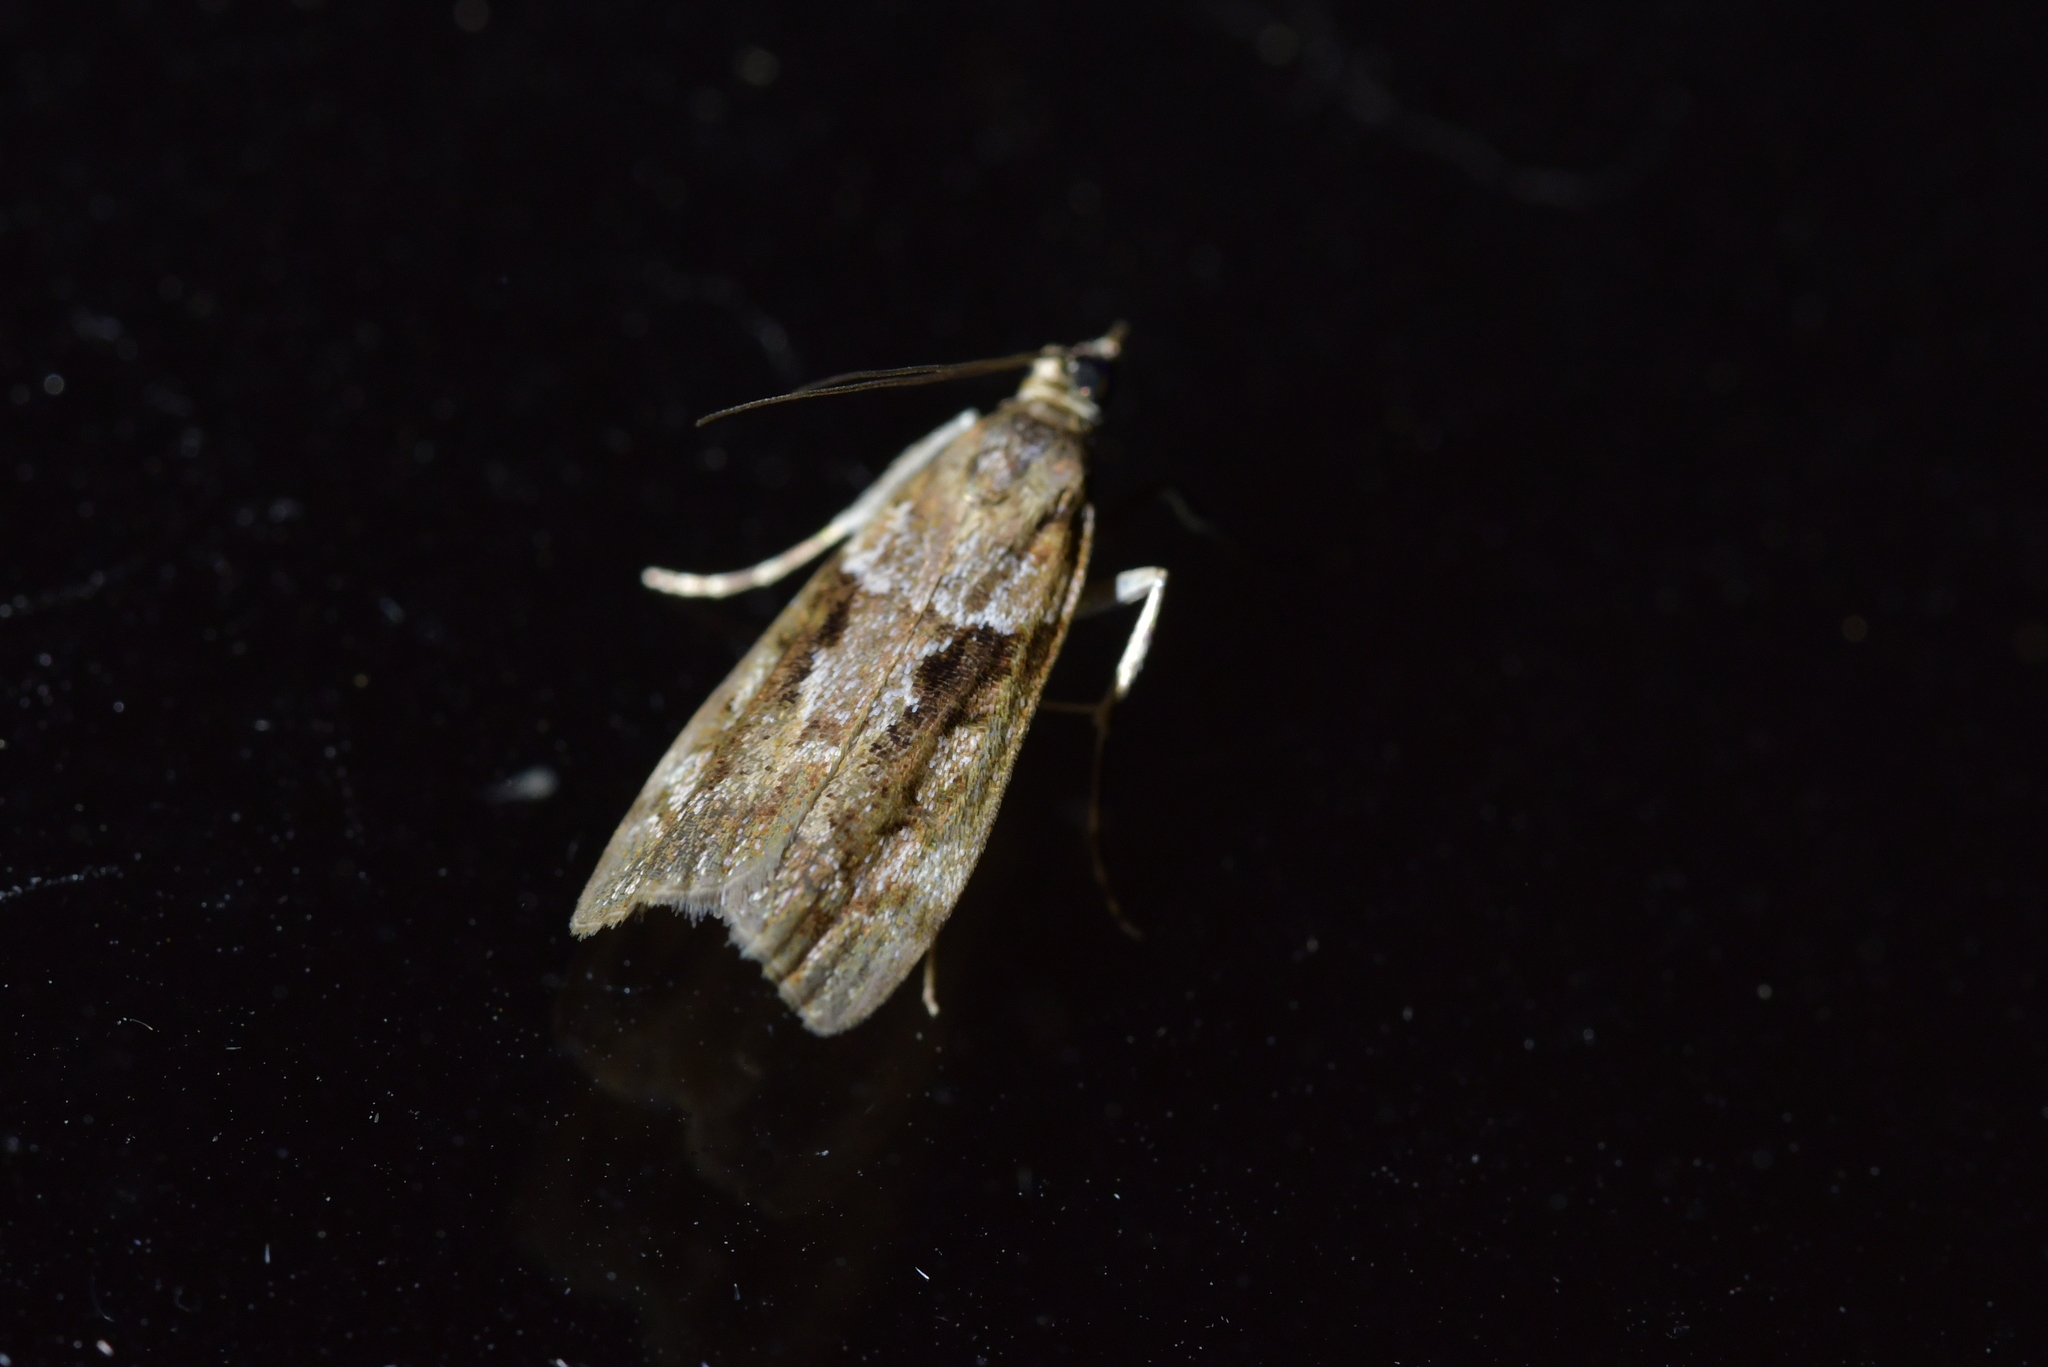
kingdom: Animalia
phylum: Arthropoda
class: Insecta
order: Lepidoptera
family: Crambidae
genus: Eudonia
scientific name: Eudonia submarginalis
